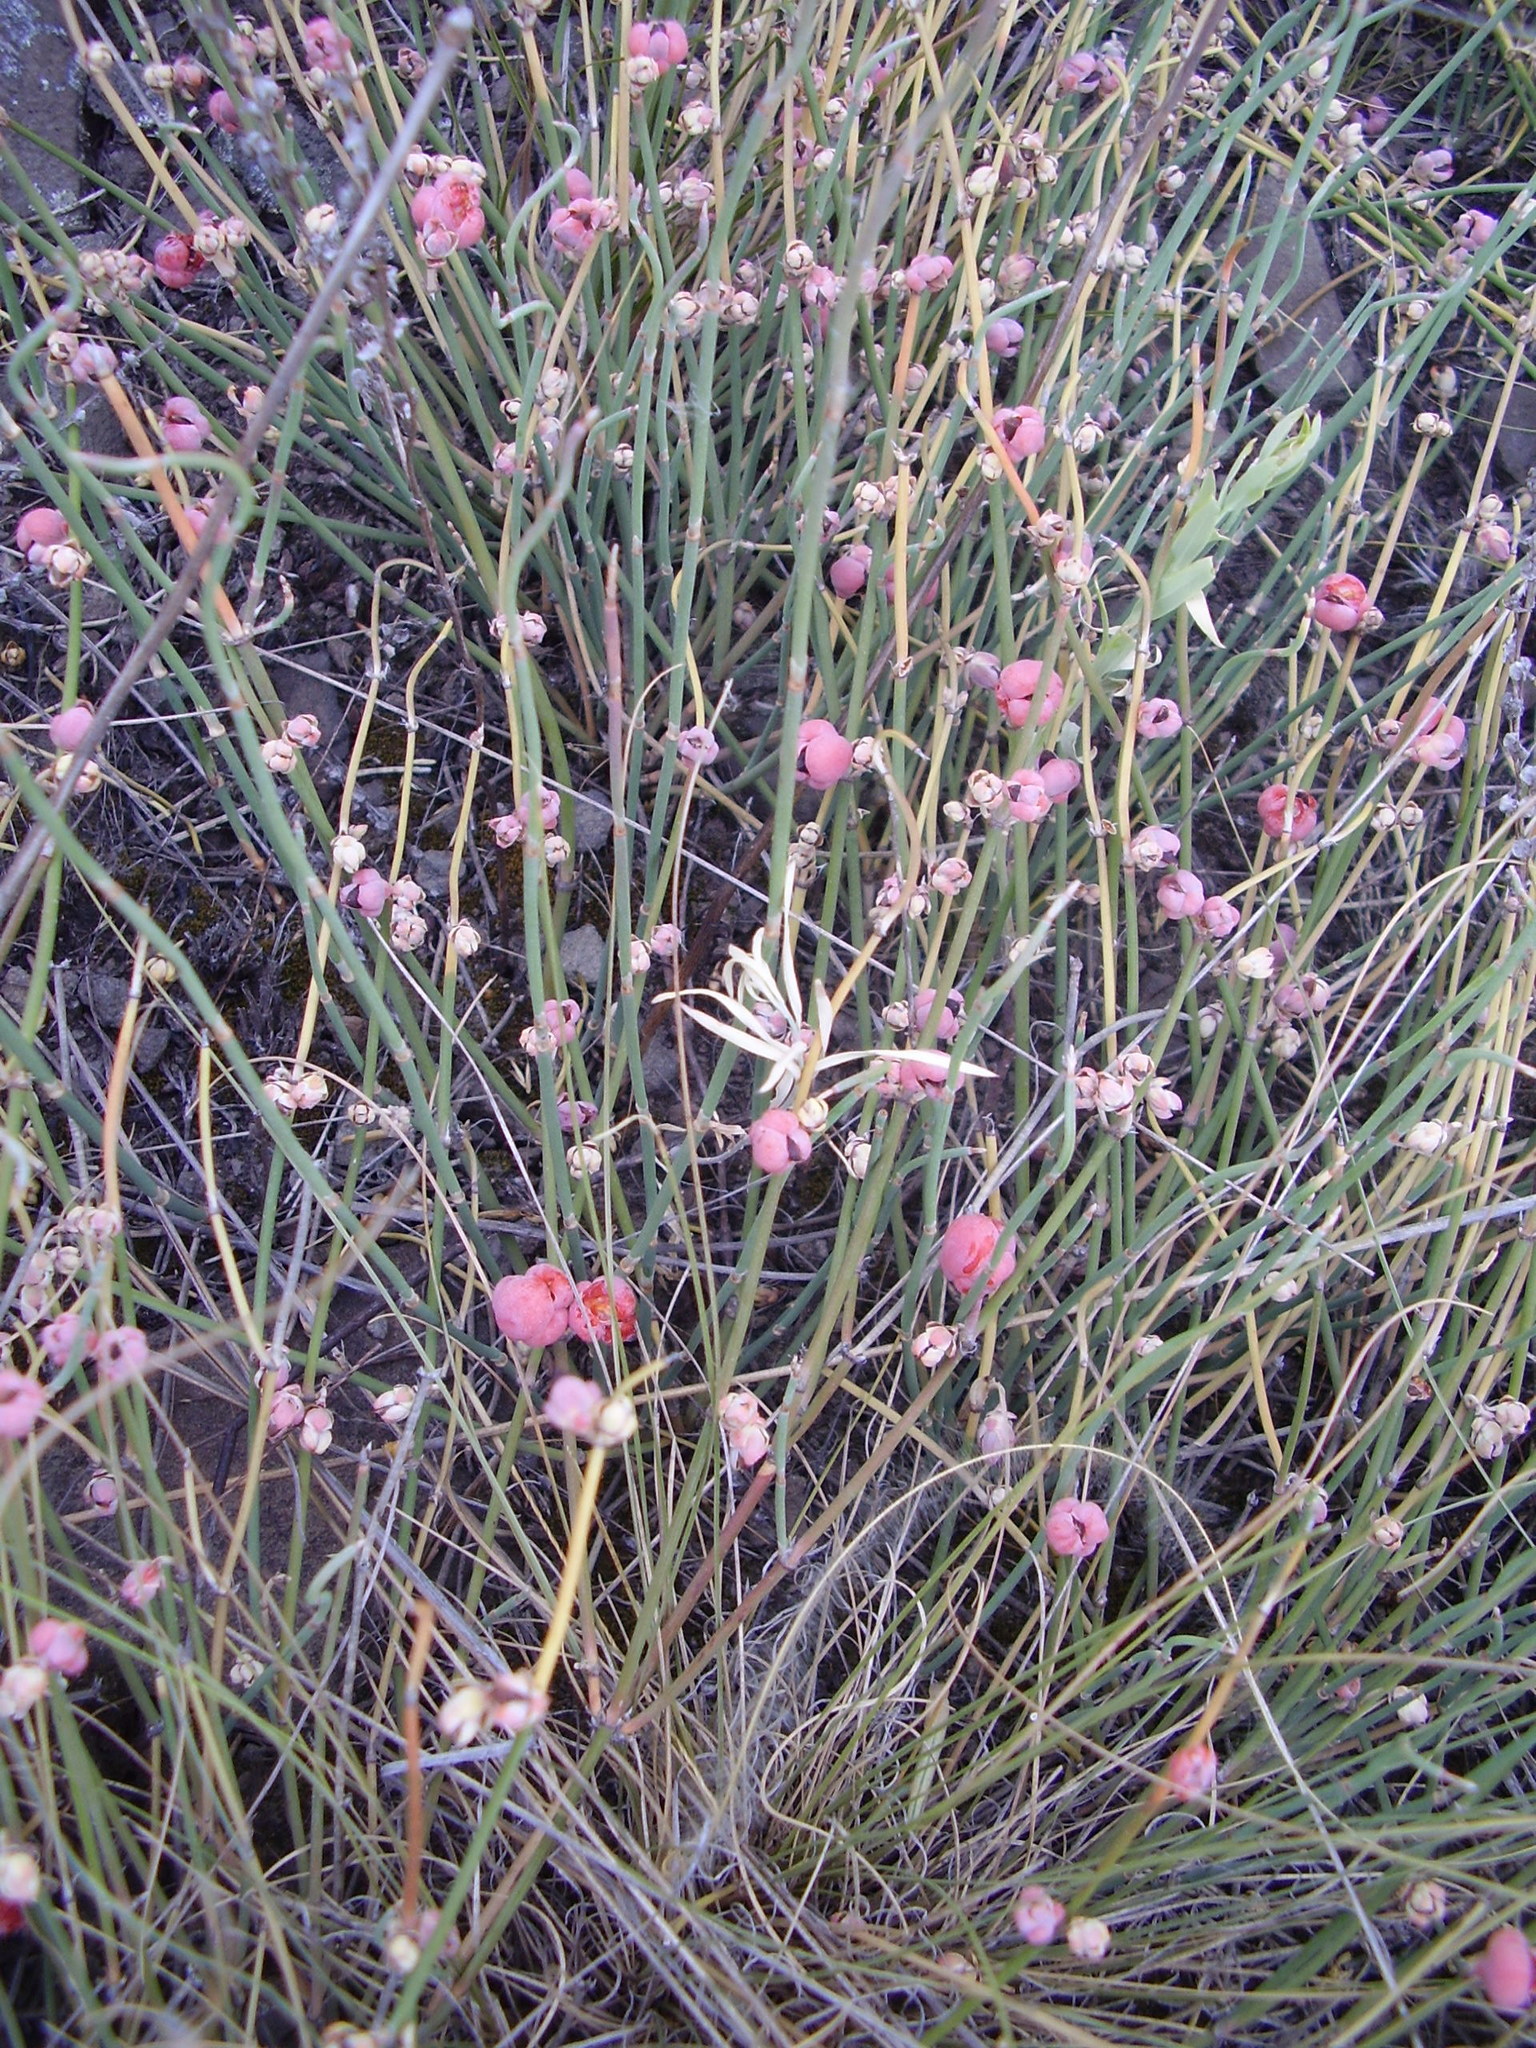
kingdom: Plantae
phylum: Tracheophyta
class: Gnetopsida
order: Ephedrales
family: Ephedraceae
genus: Ephedra
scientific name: Ephedra distachya
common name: Sea grape
